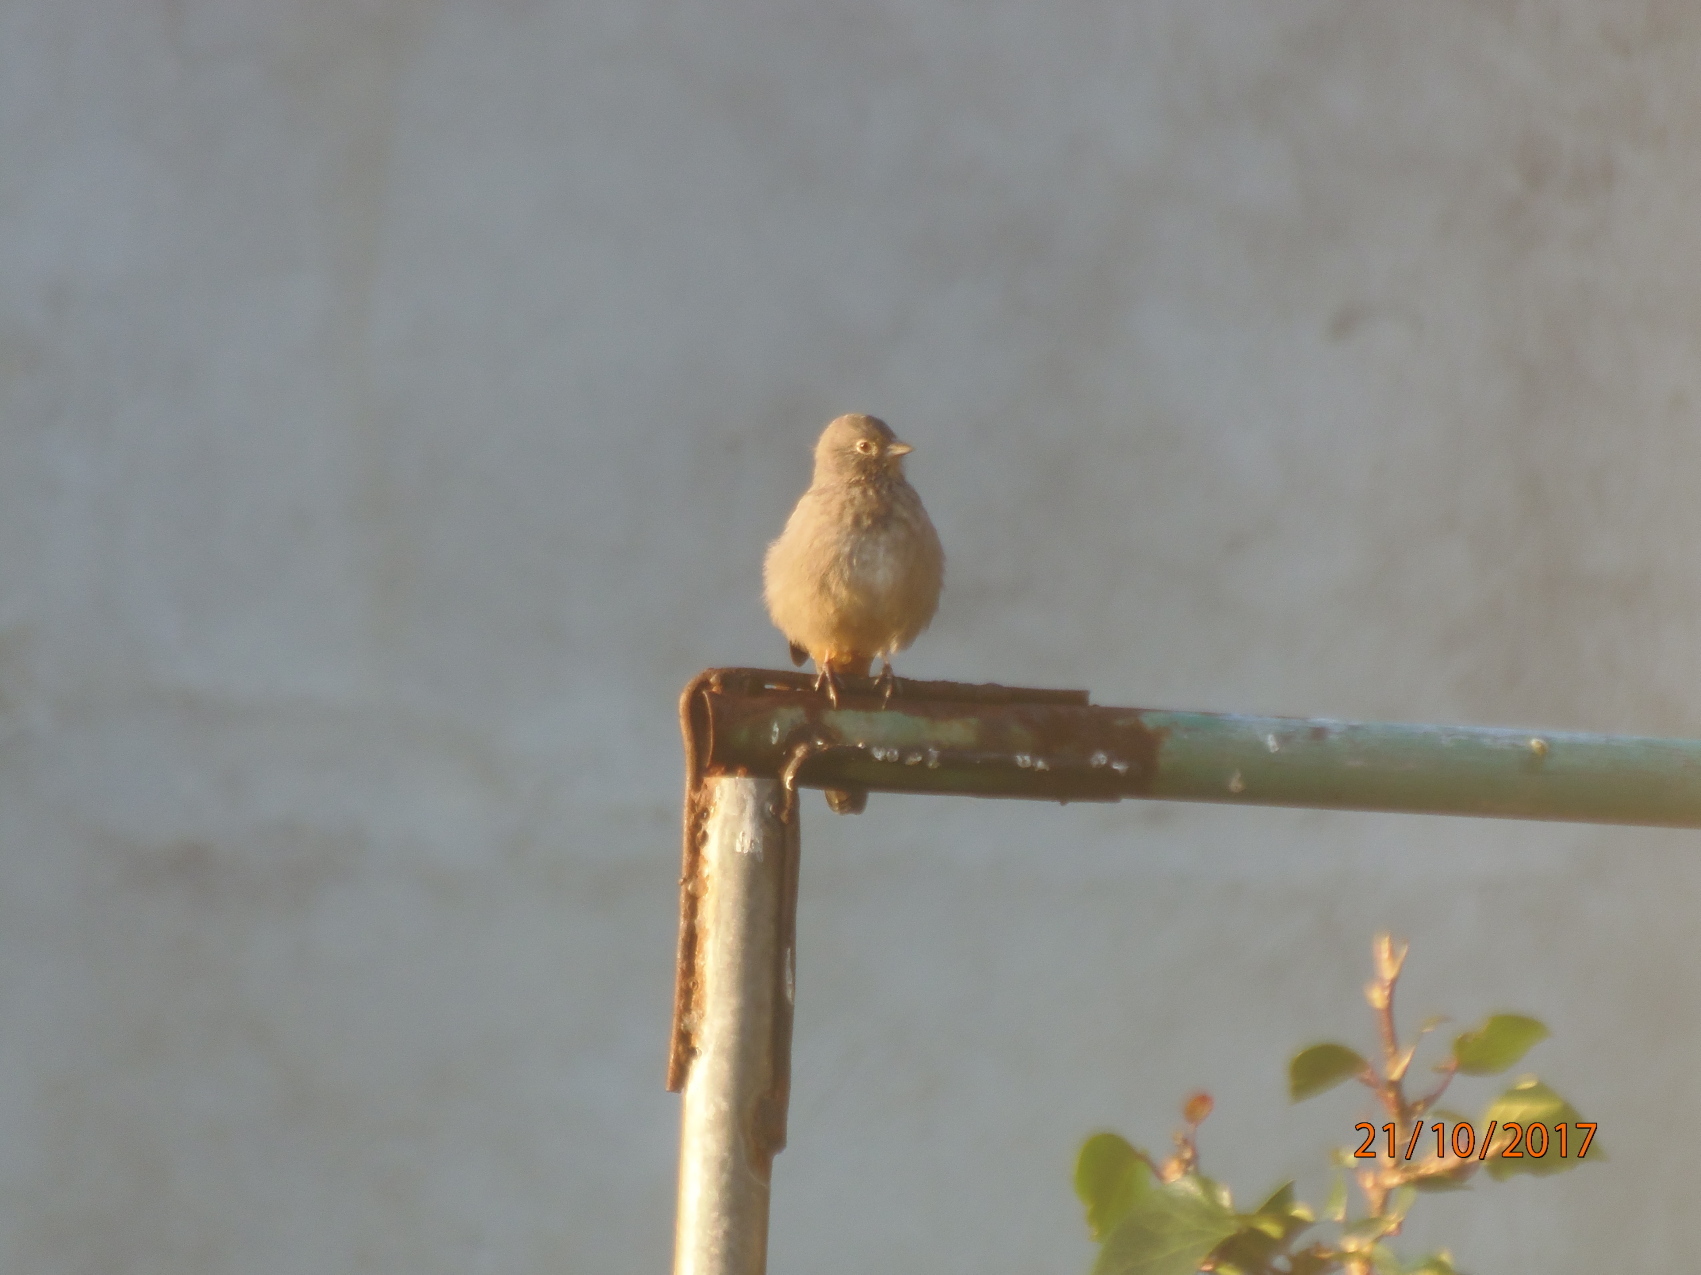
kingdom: Animalia
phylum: Chordata
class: Aves
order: Passeriformes
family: Passerellidae
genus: Melozone
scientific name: Melozone fusca
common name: Canyon towhee
